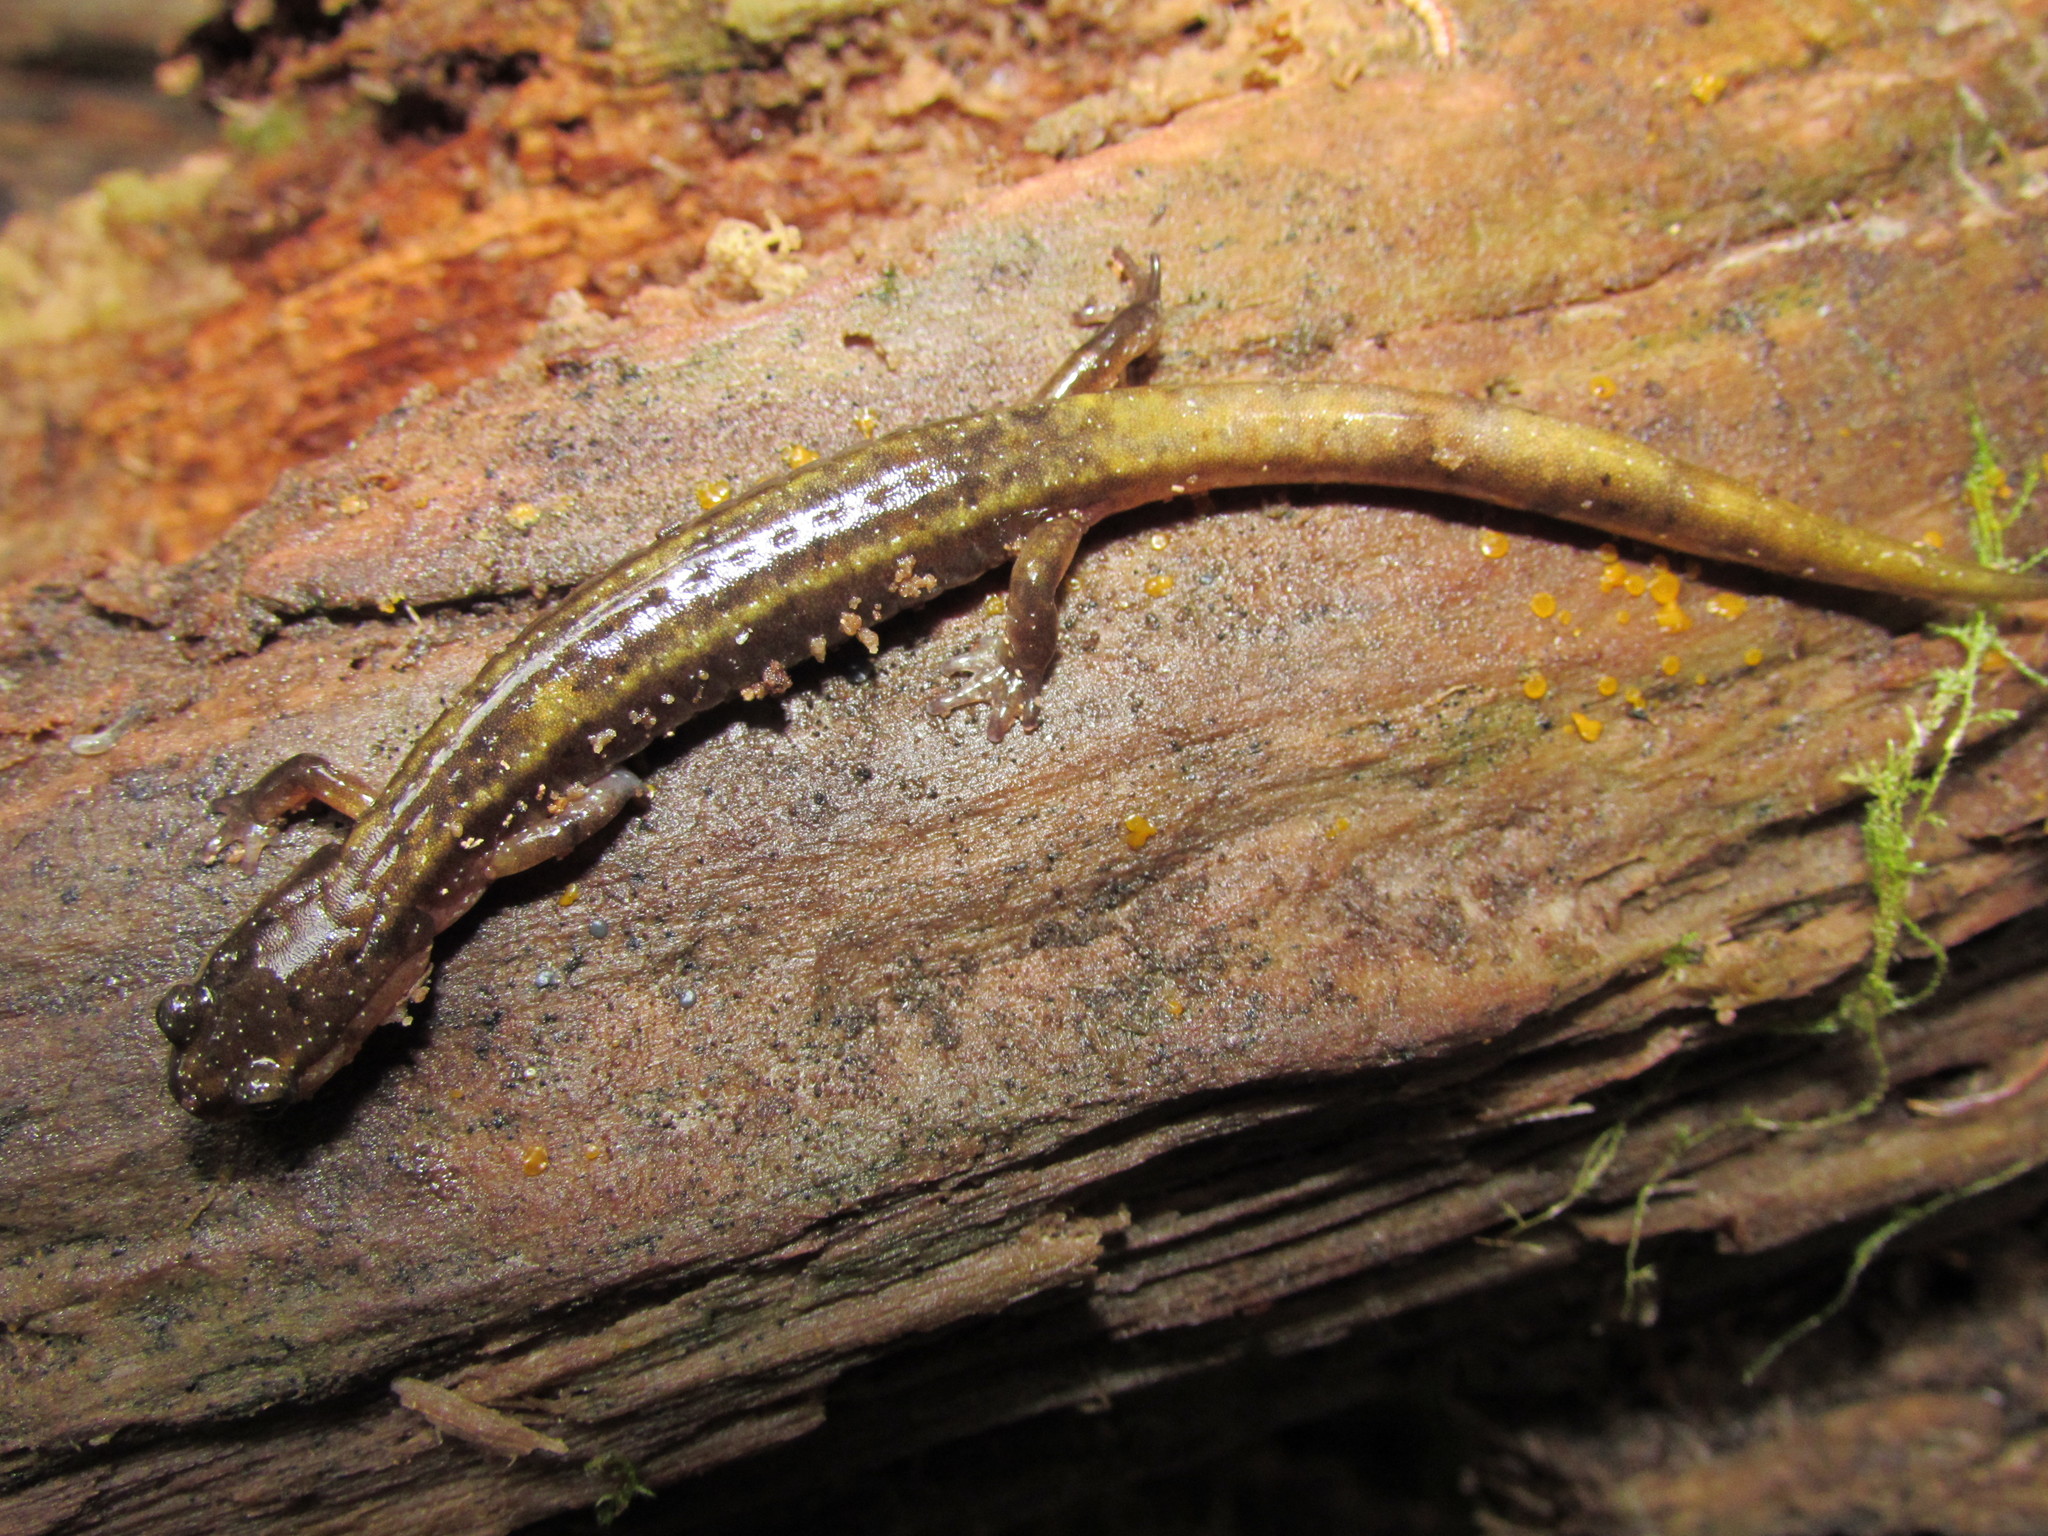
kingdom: Animalia
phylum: Chordata
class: Amphibia
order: Caudata
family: Plethodontidae
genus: Plethodon
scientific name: Plethodon dunni
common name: Dunn's salamander
